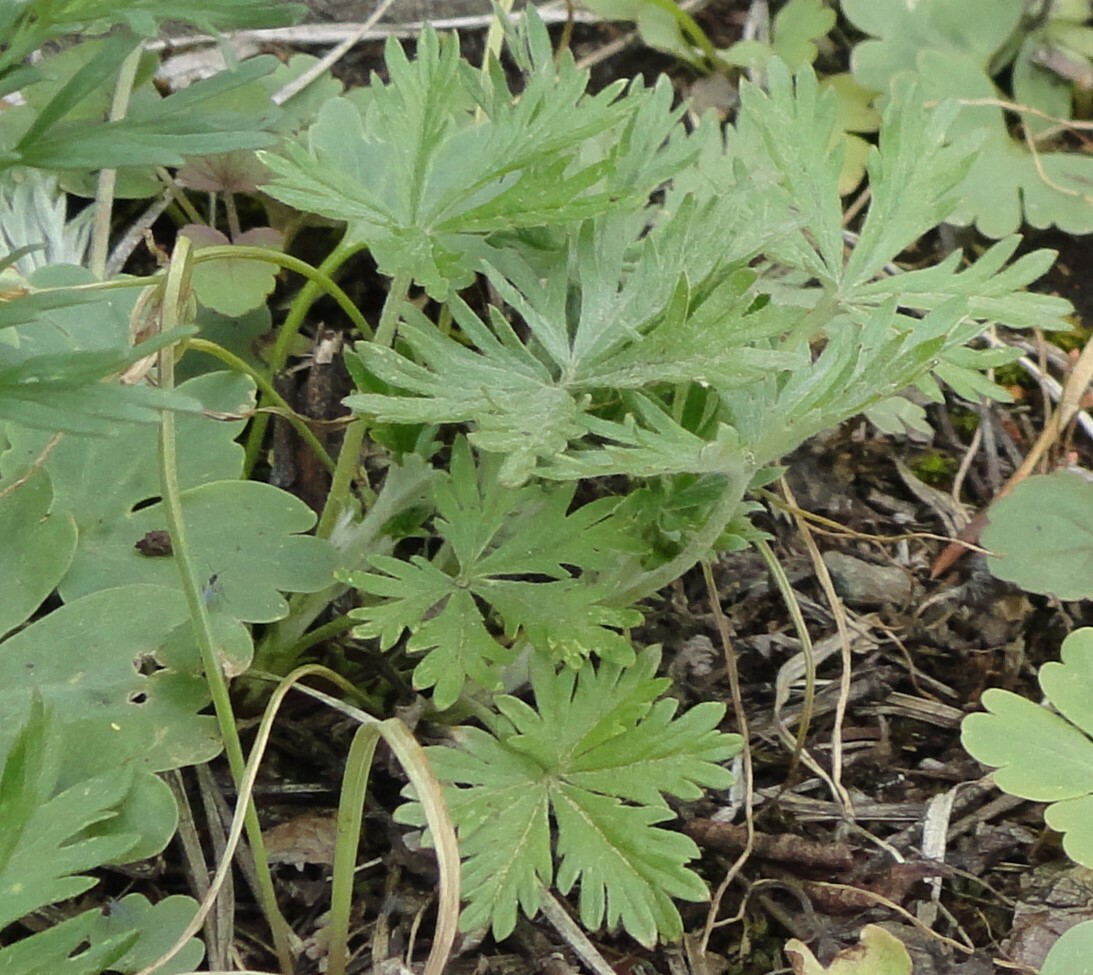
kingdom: Plantae
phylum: Tracheophyta
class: Magnoliopsida
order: Rosales
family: Rosaceae
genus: Potentilla
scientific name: Potentilla argentea
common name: Hoary cinquefoil
